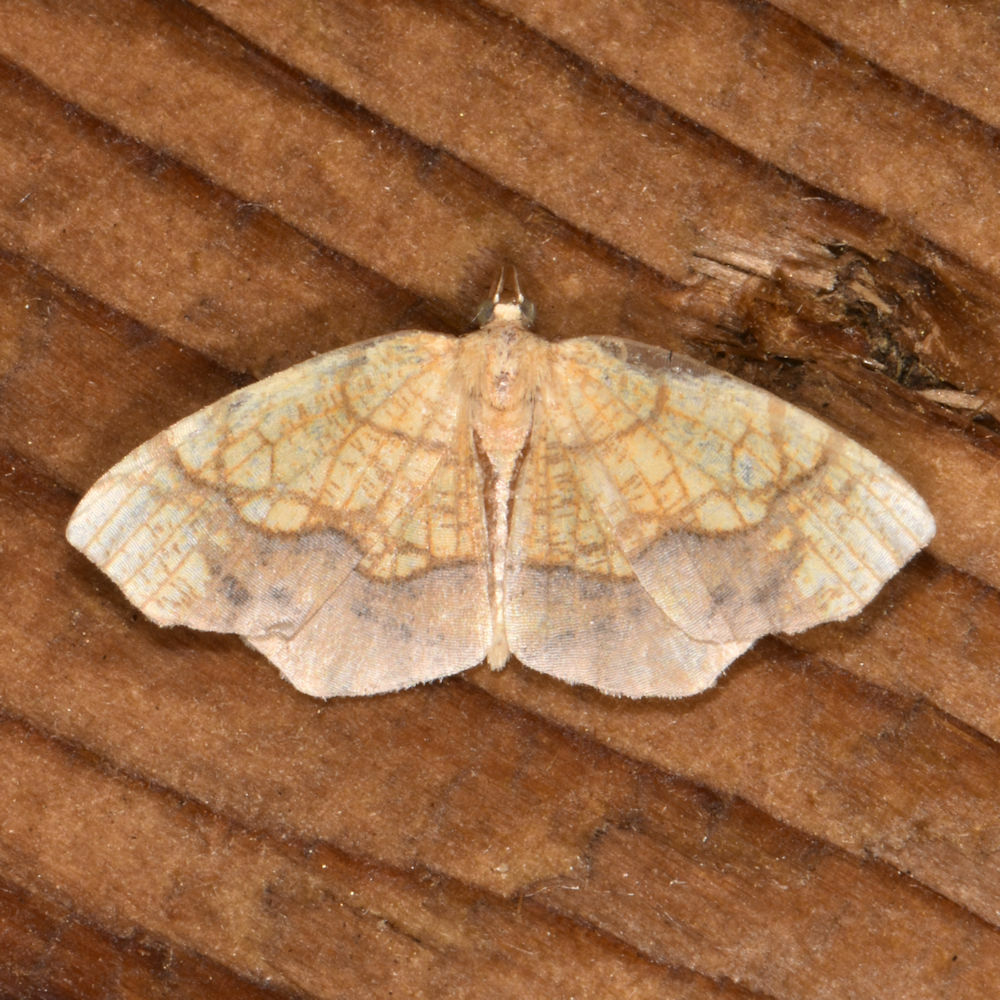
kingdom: Animalia
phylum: Arthropoda
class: Insecta
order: Lepidoptera
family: Geometridae
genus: Nematocampa
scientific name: Nematocampa resistaria
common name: Horned spanworm moth
